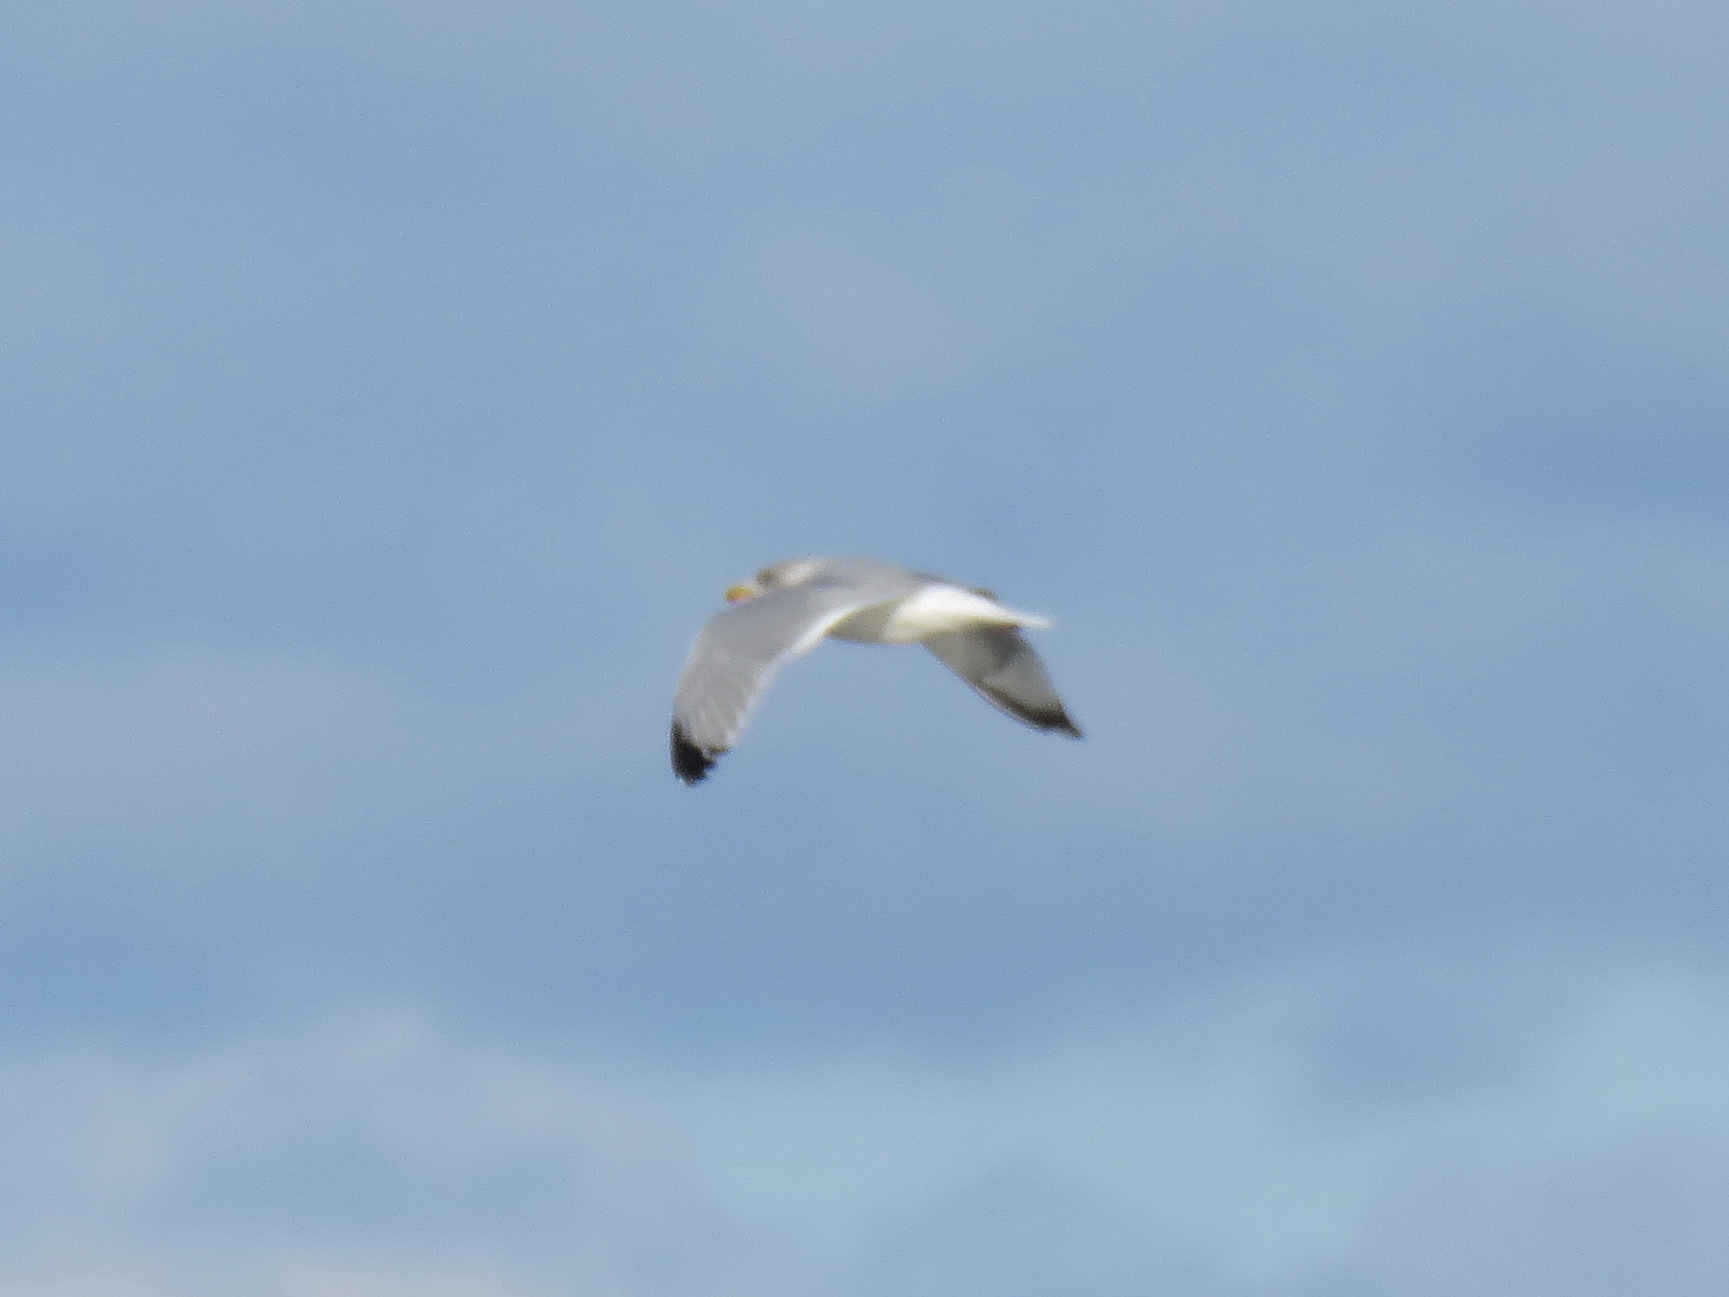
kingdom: Animalia
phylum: Chordata
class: Aves
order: Charadriiformes
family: Laridae
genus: Larus
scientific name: Larus argentatus
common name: Herring gull
